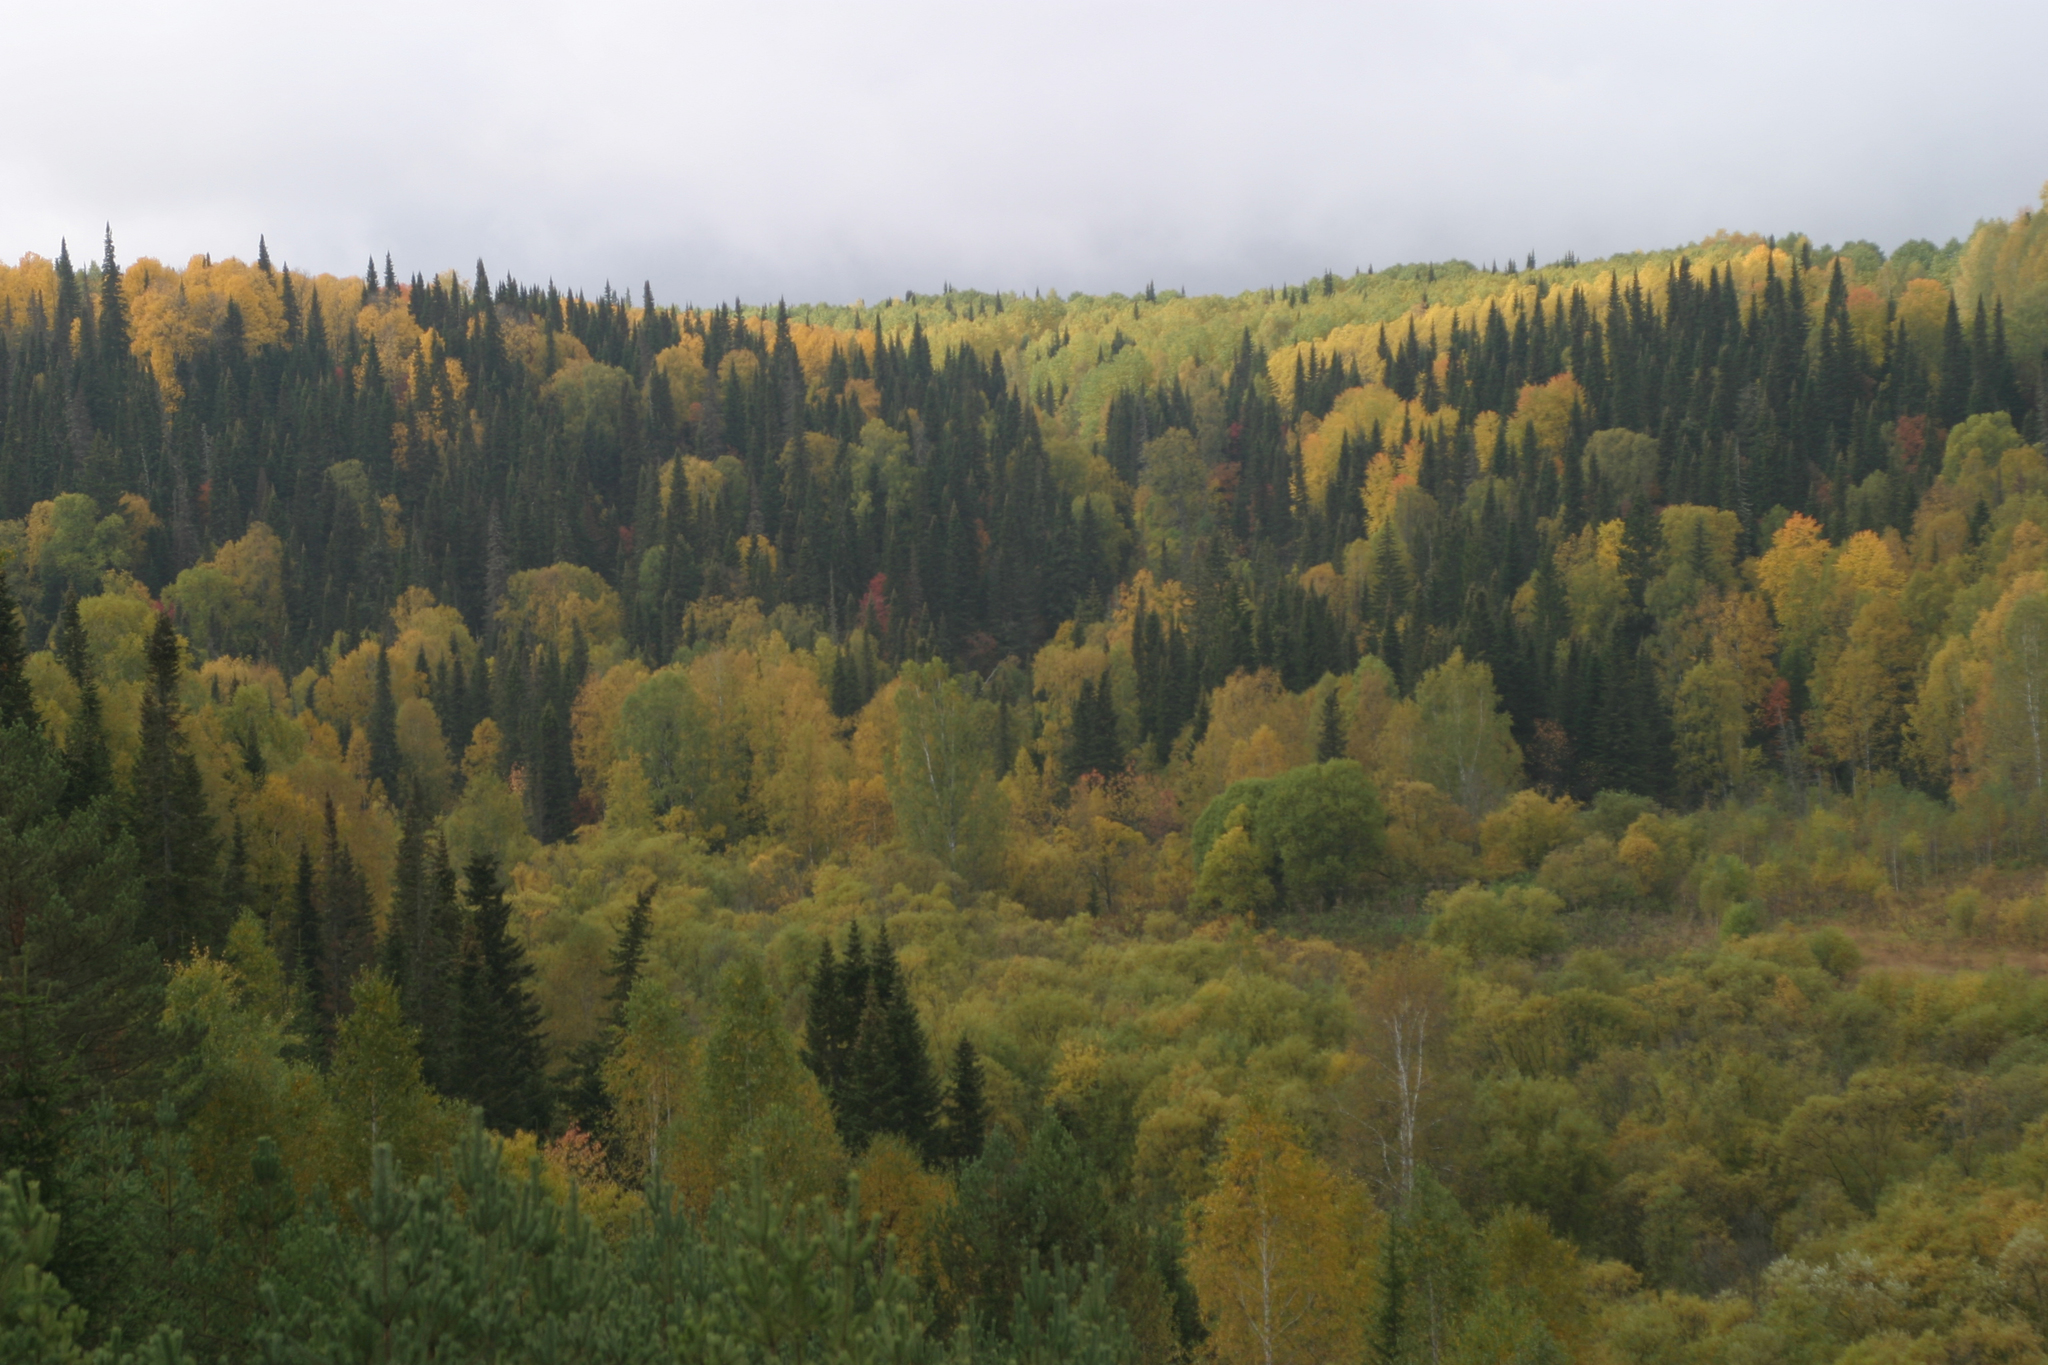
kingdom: Plantae
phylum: Tracheophyta
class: Magnoliopsida
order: Fagales
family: Betulaceae
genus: Betula
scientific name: Betula pendula
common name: Silver birch
